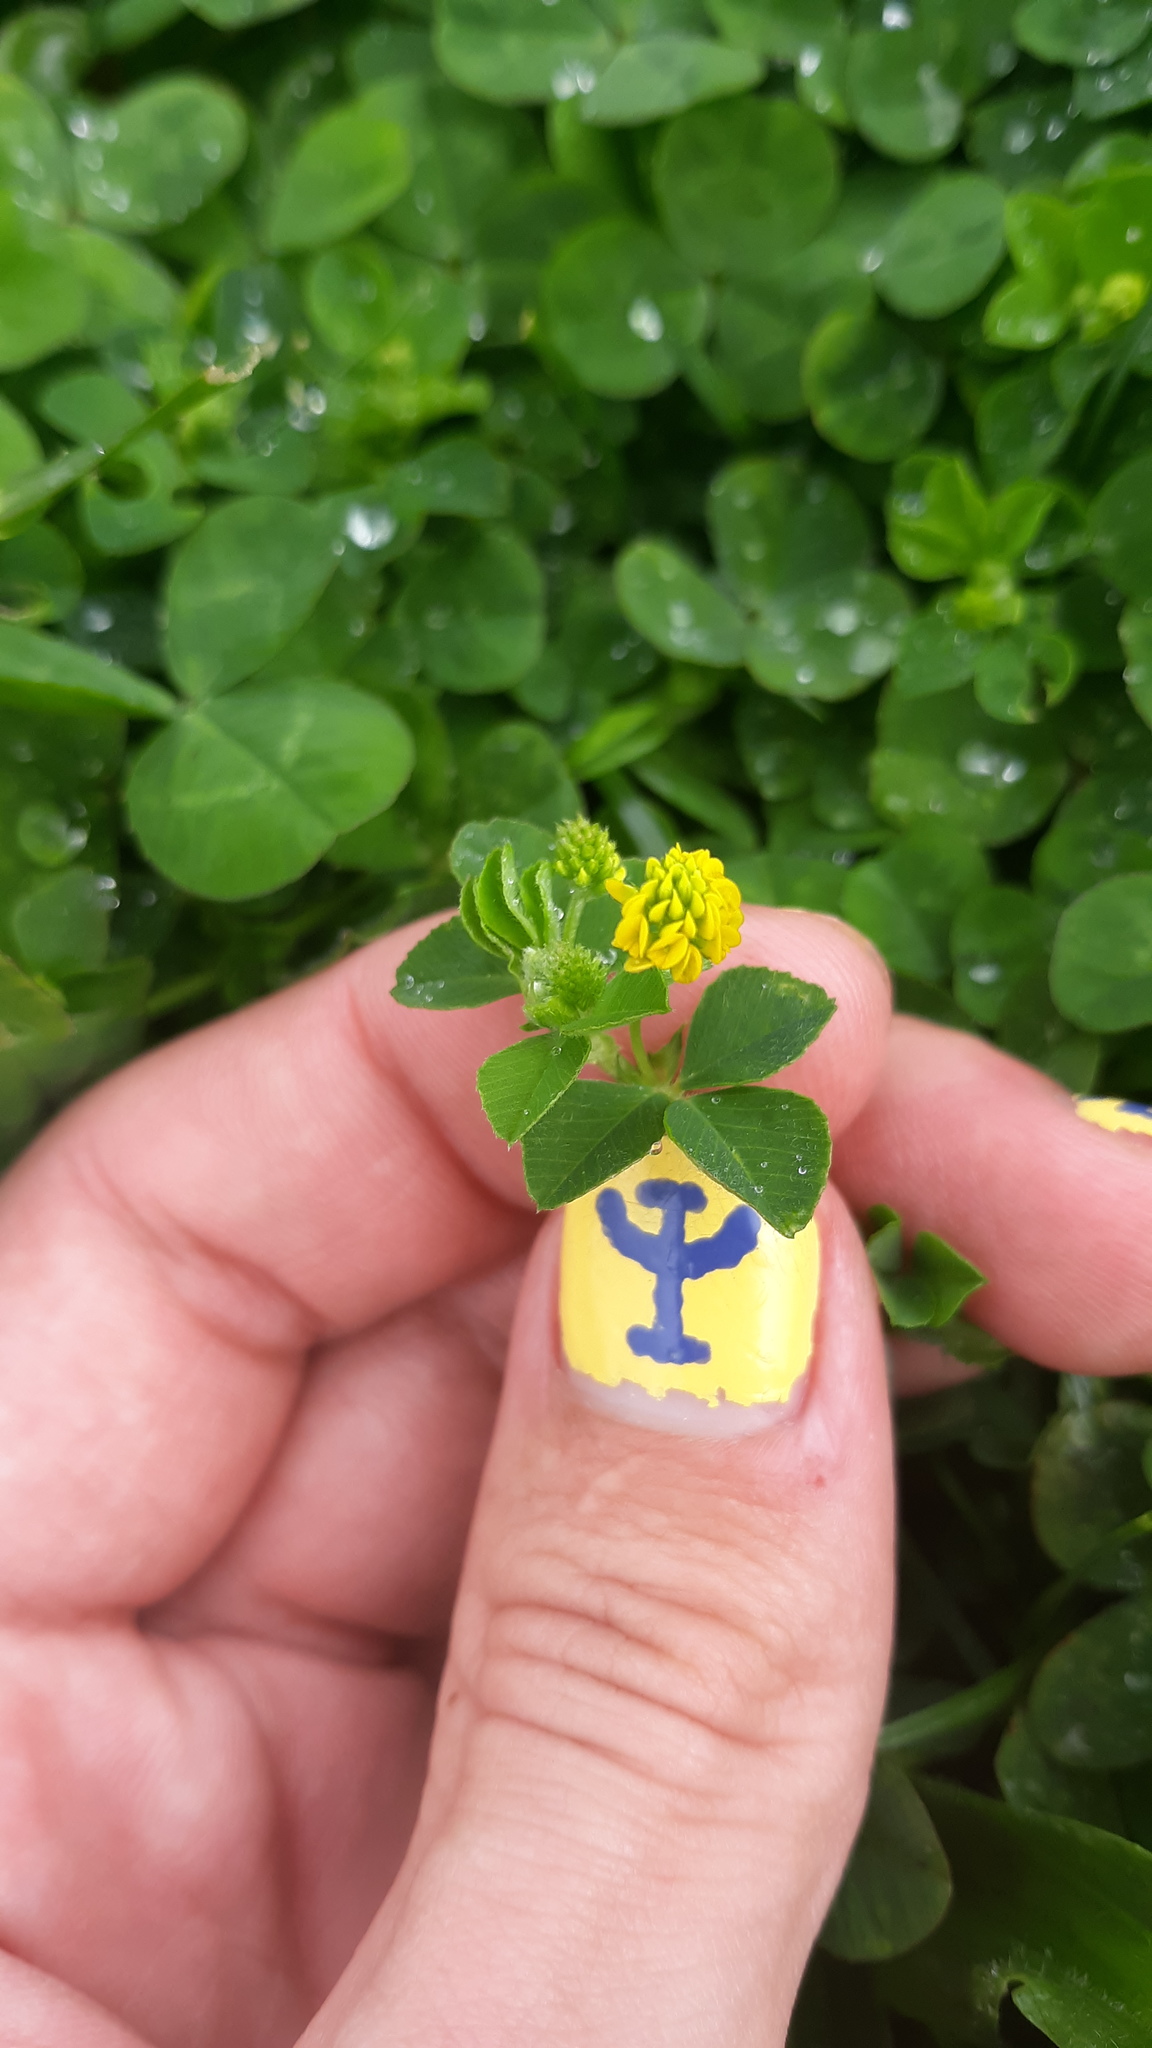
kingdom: Plantae
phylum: Tracheophyta
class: Magnoliopsida
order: Fabales
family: Fabaceae
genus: Medicago
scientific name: Medicago lupulina
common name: Black medick
